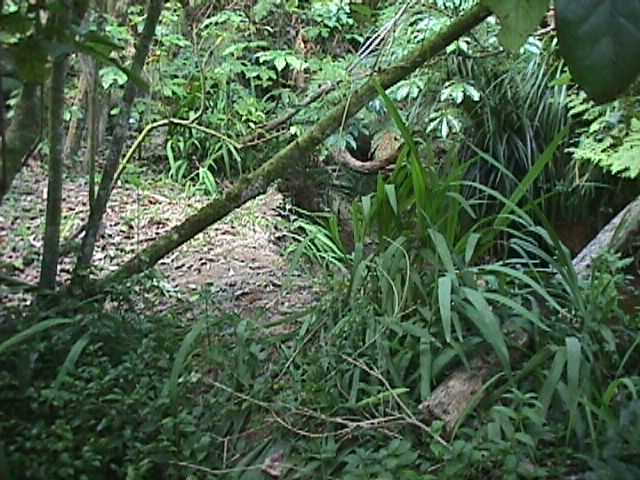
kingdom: Plantae
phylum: Tracheophyta
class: Liliopsida
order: Asparagales
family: Iridaceae
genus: Crocosmia
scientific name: Crocosmia crocosmiiflora
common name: Montbretia
